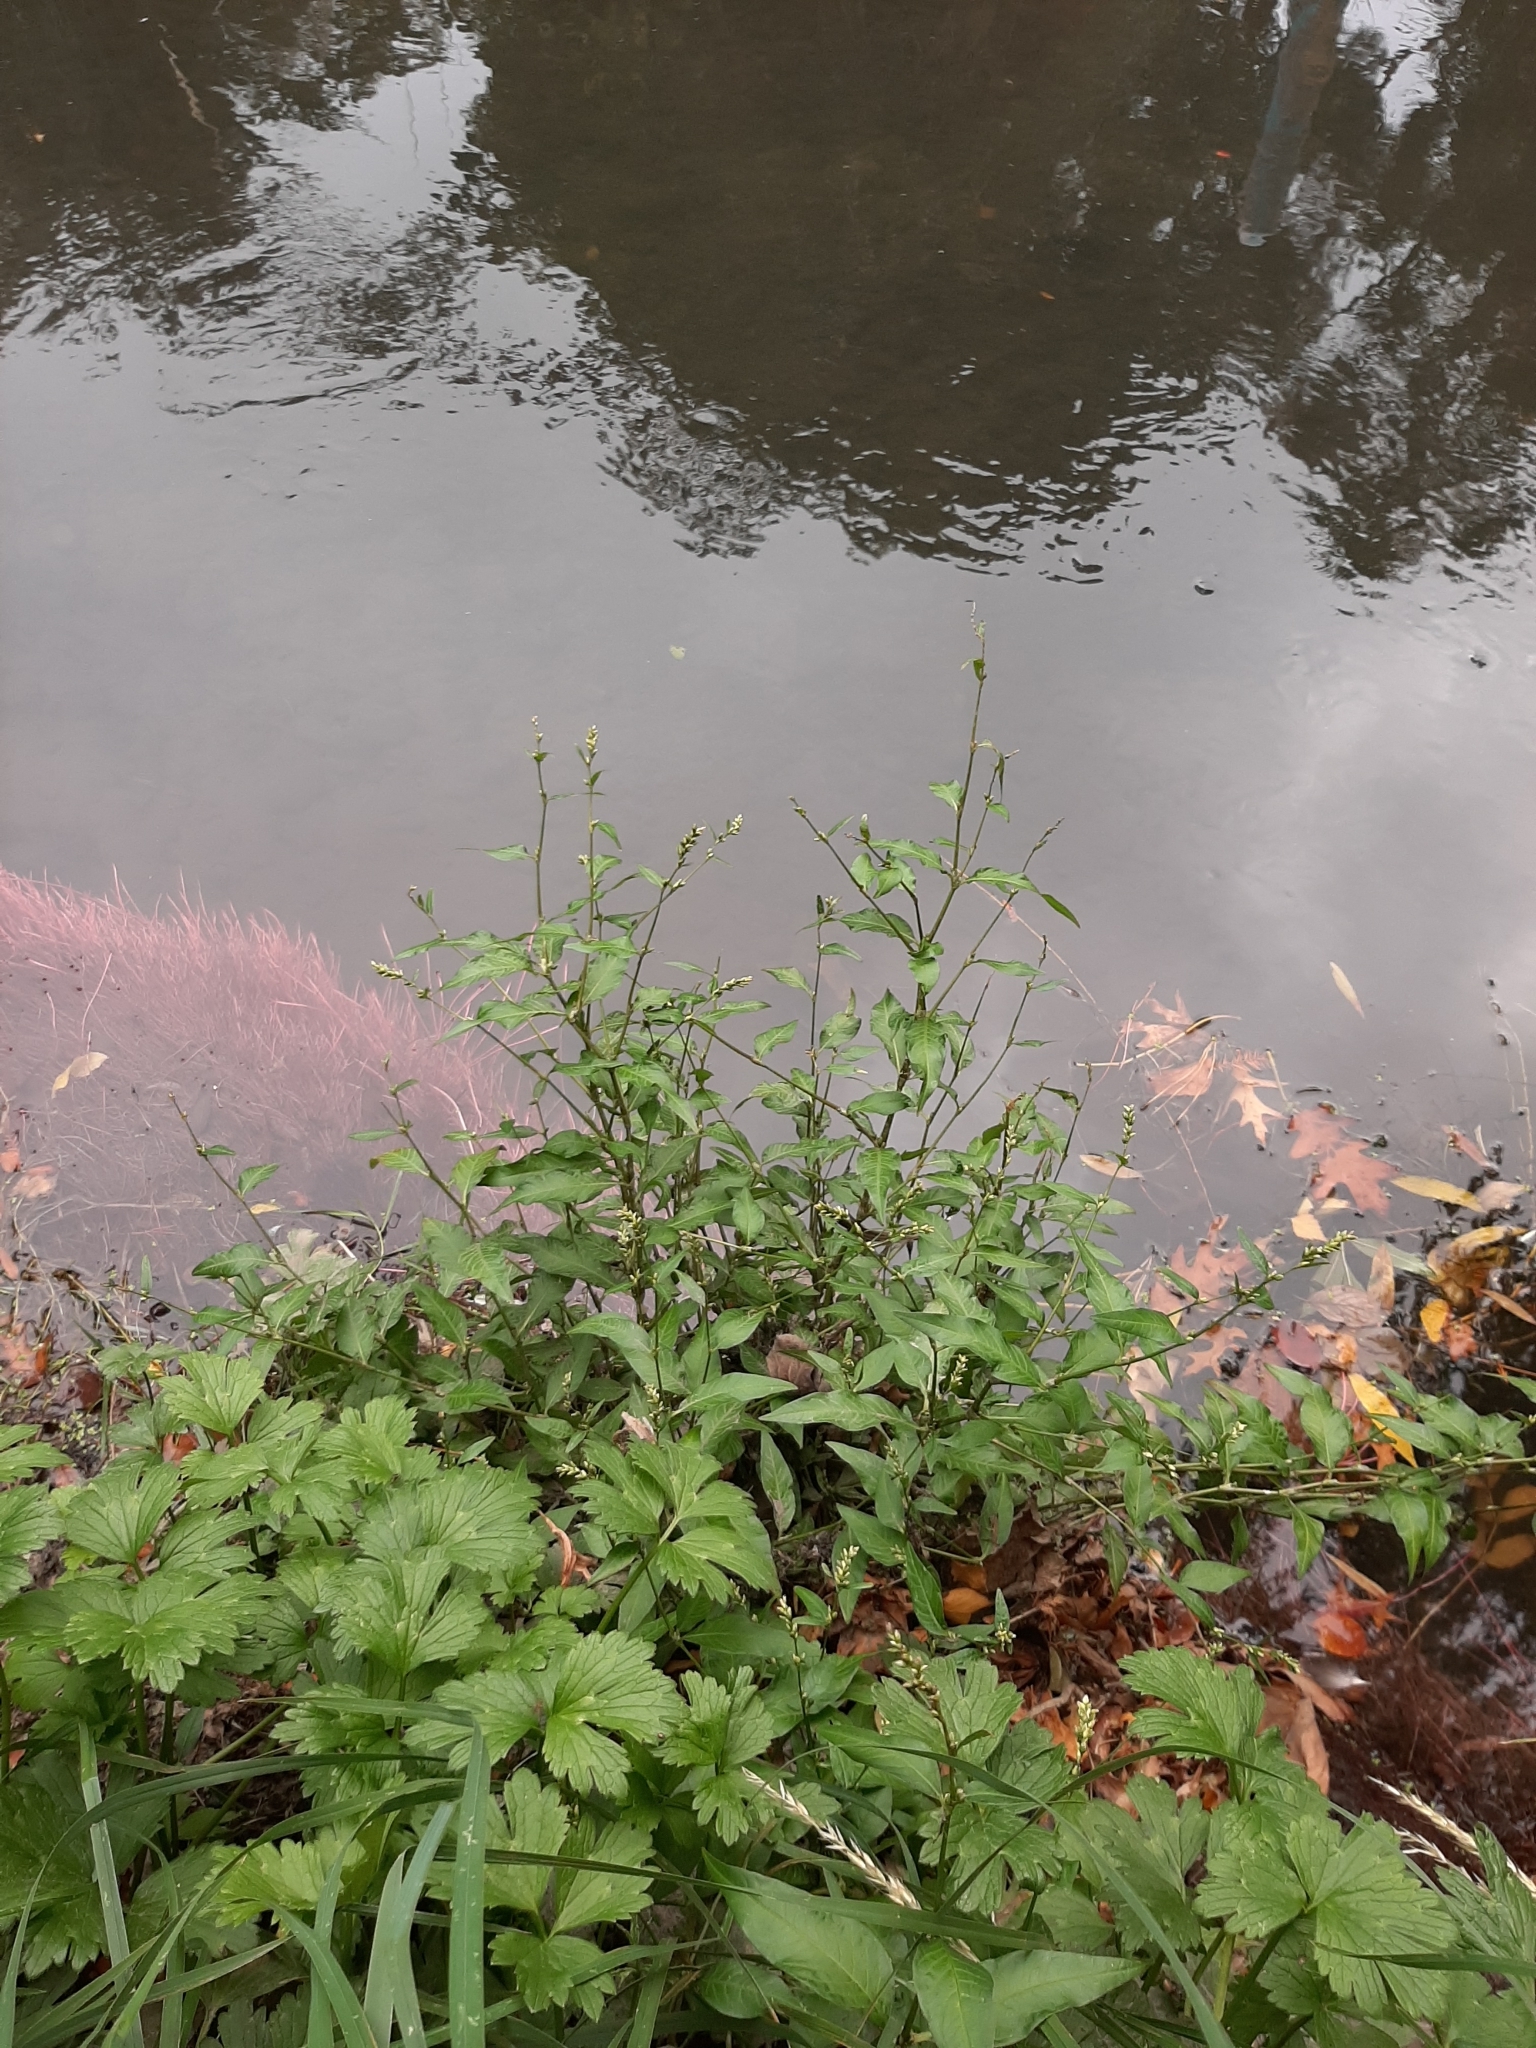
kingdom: Plantae
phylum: Tracheophyta
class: Magnoliopsida
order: Caryophyllales
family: Polygonaceae
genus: Persicaria
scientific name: Persicaria decipiens
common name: Willow-weed
